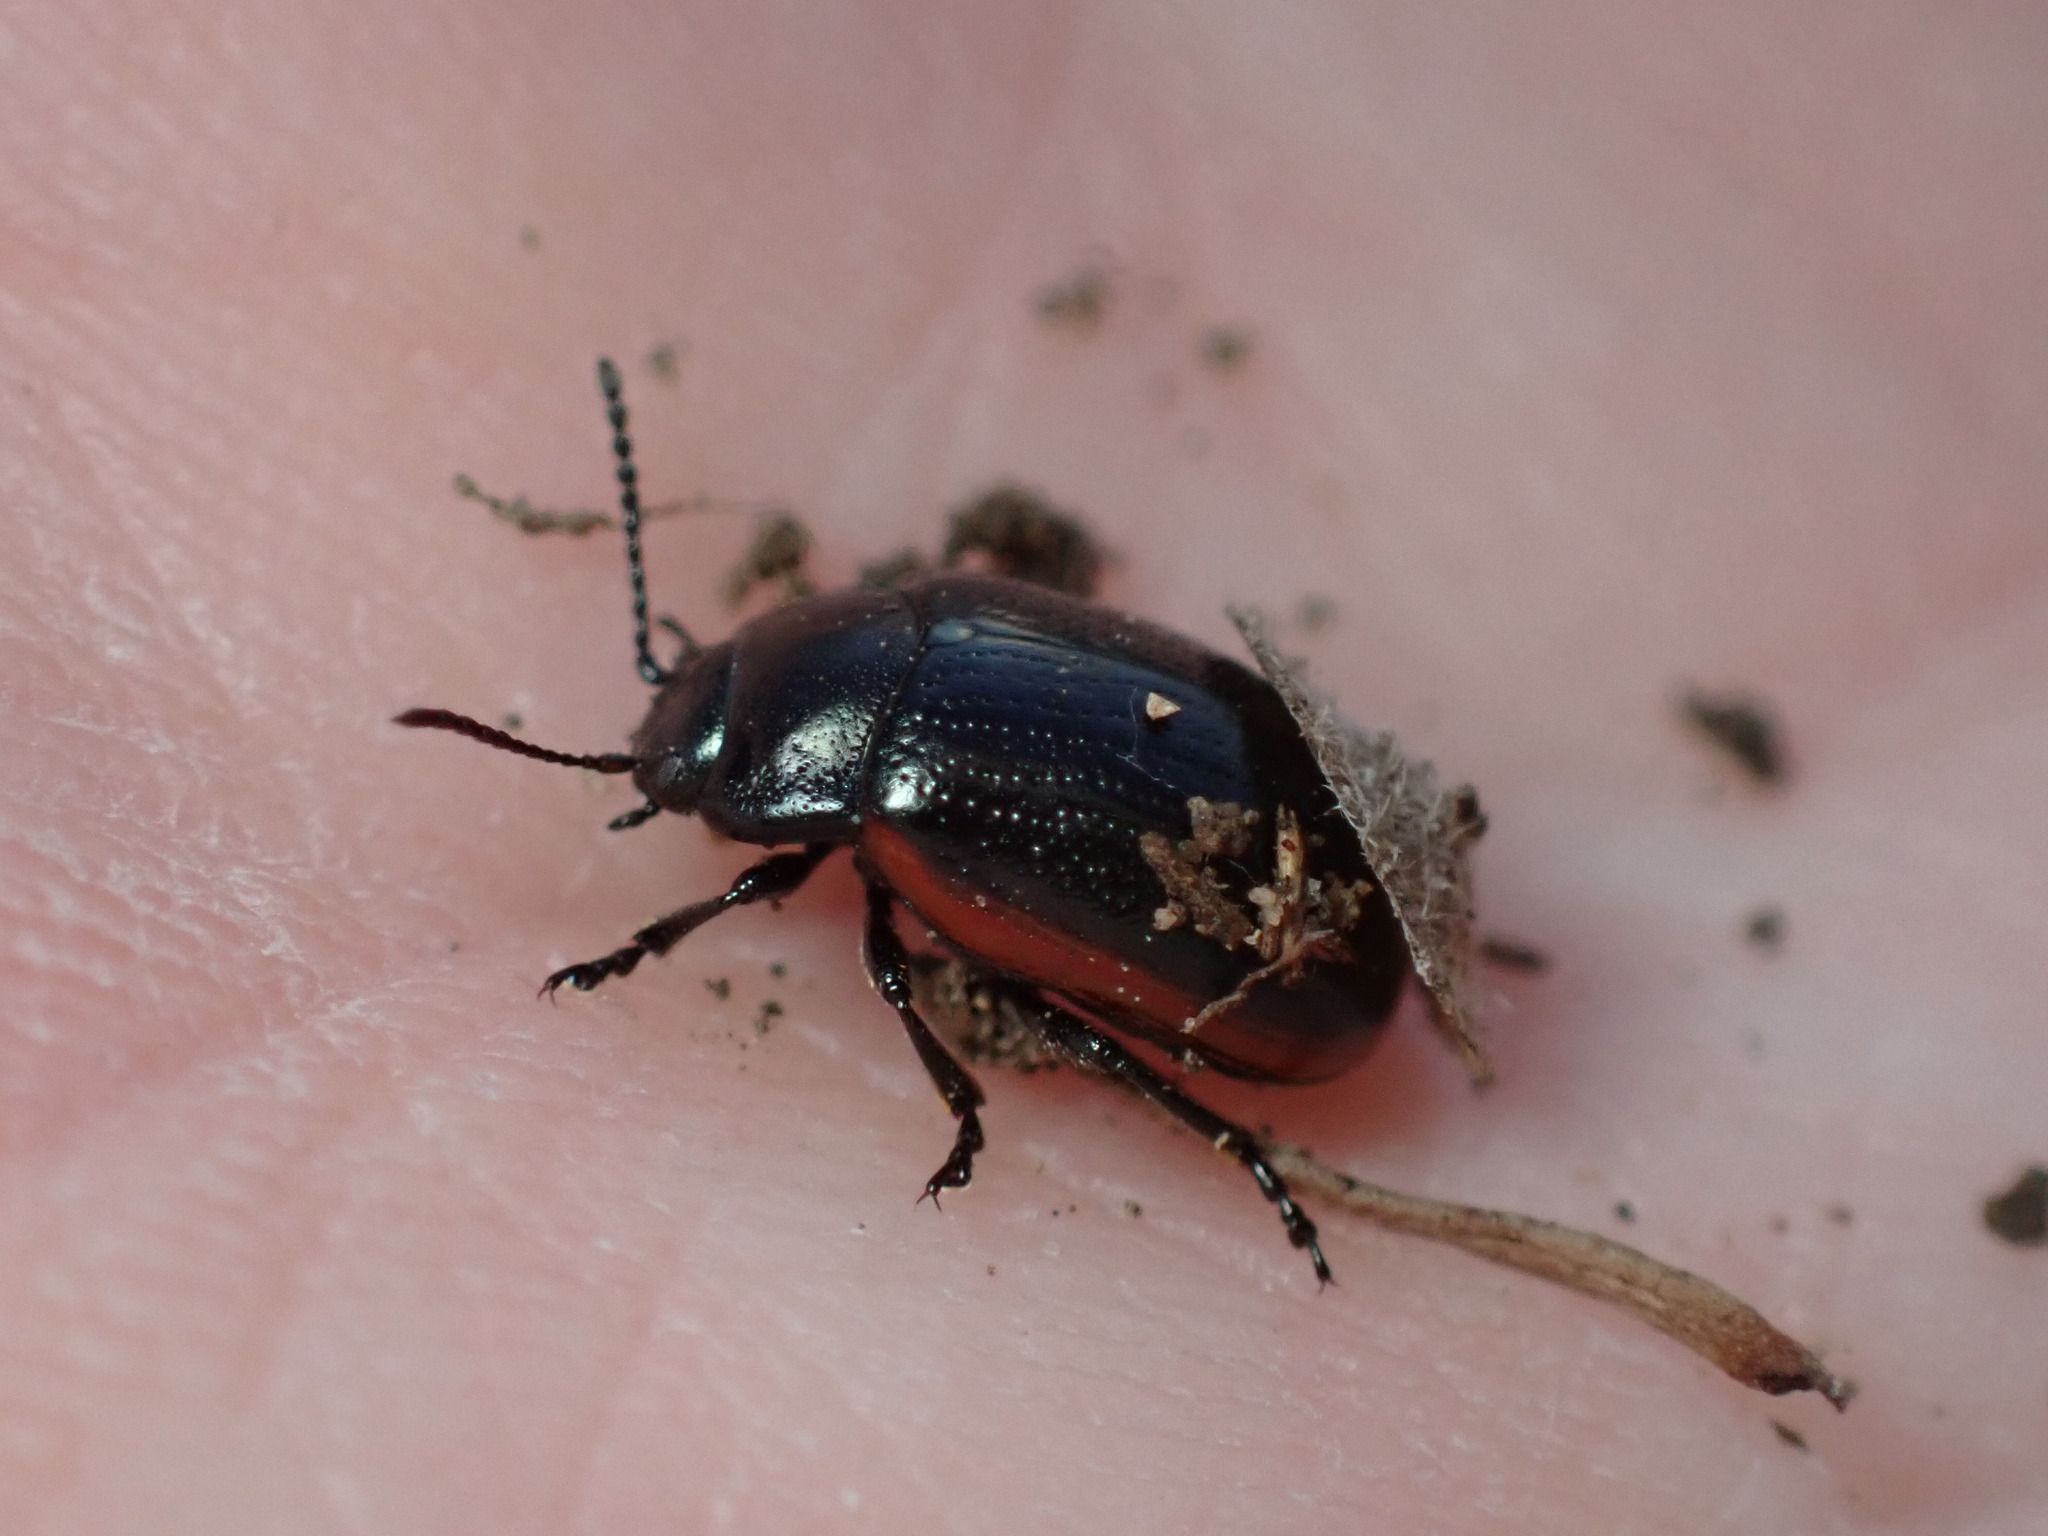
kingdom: Animalia
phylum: Arthropoda
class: Insecta
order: Coleoptera
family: Chrysomelidae
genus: Chrysolina
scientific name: Chrysolina flavomarginata
